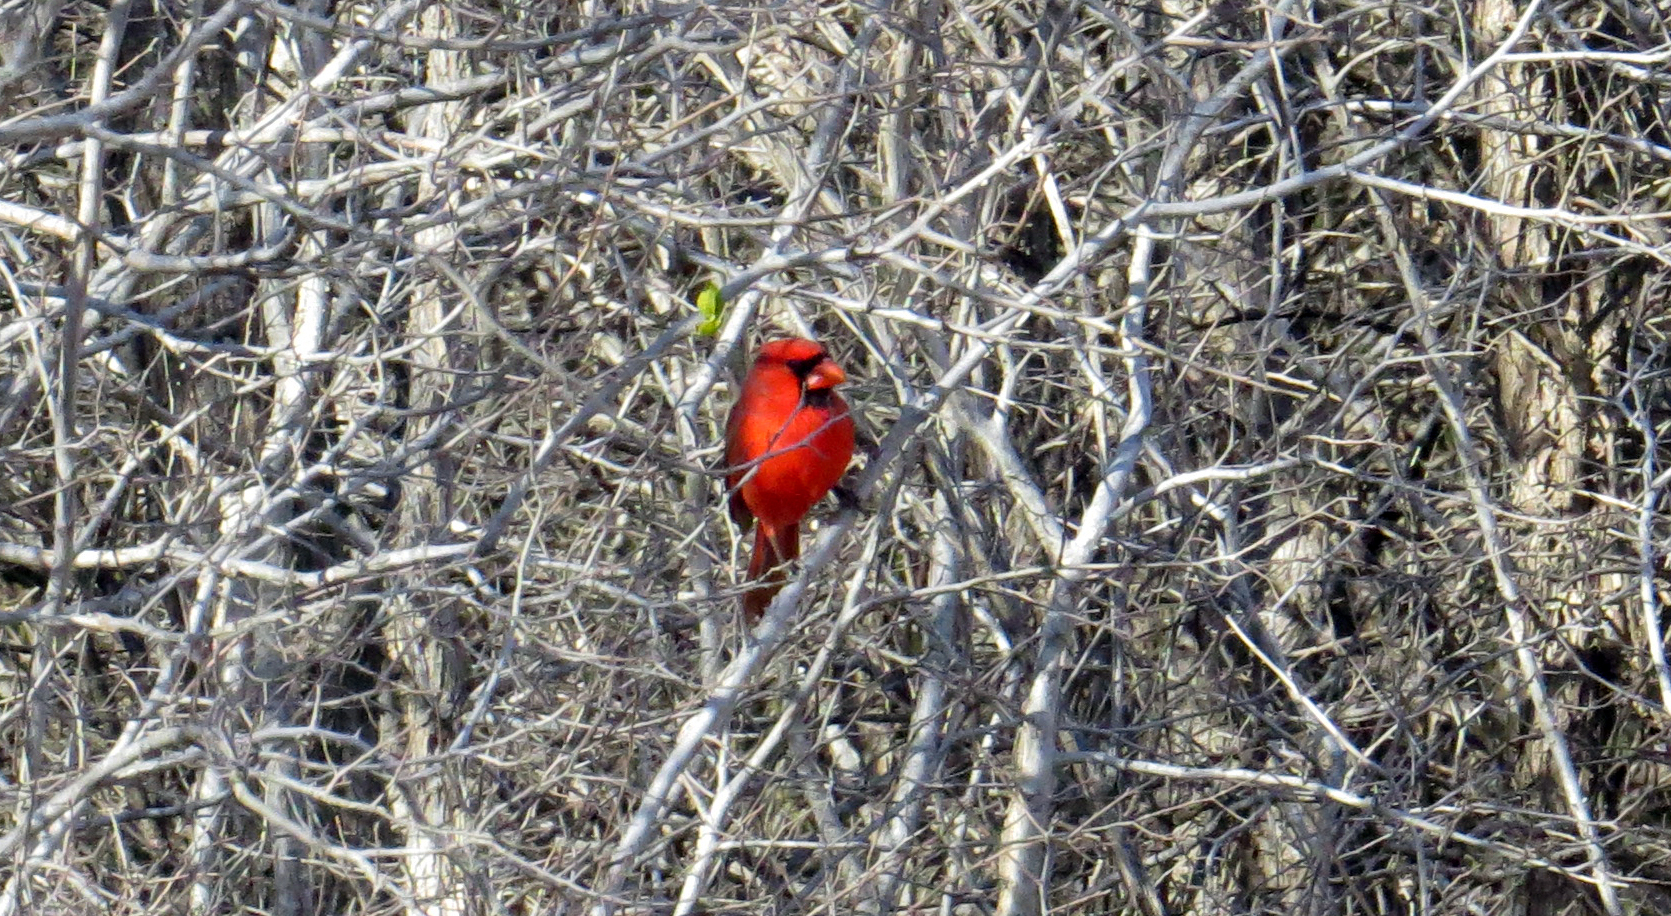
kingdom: Animalia
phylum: Chordata
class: Aves
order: Passeriformes
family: Cardinalidae
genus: Cardinalis
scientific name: Cardinalis cardinalis
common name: Northern cardinal
